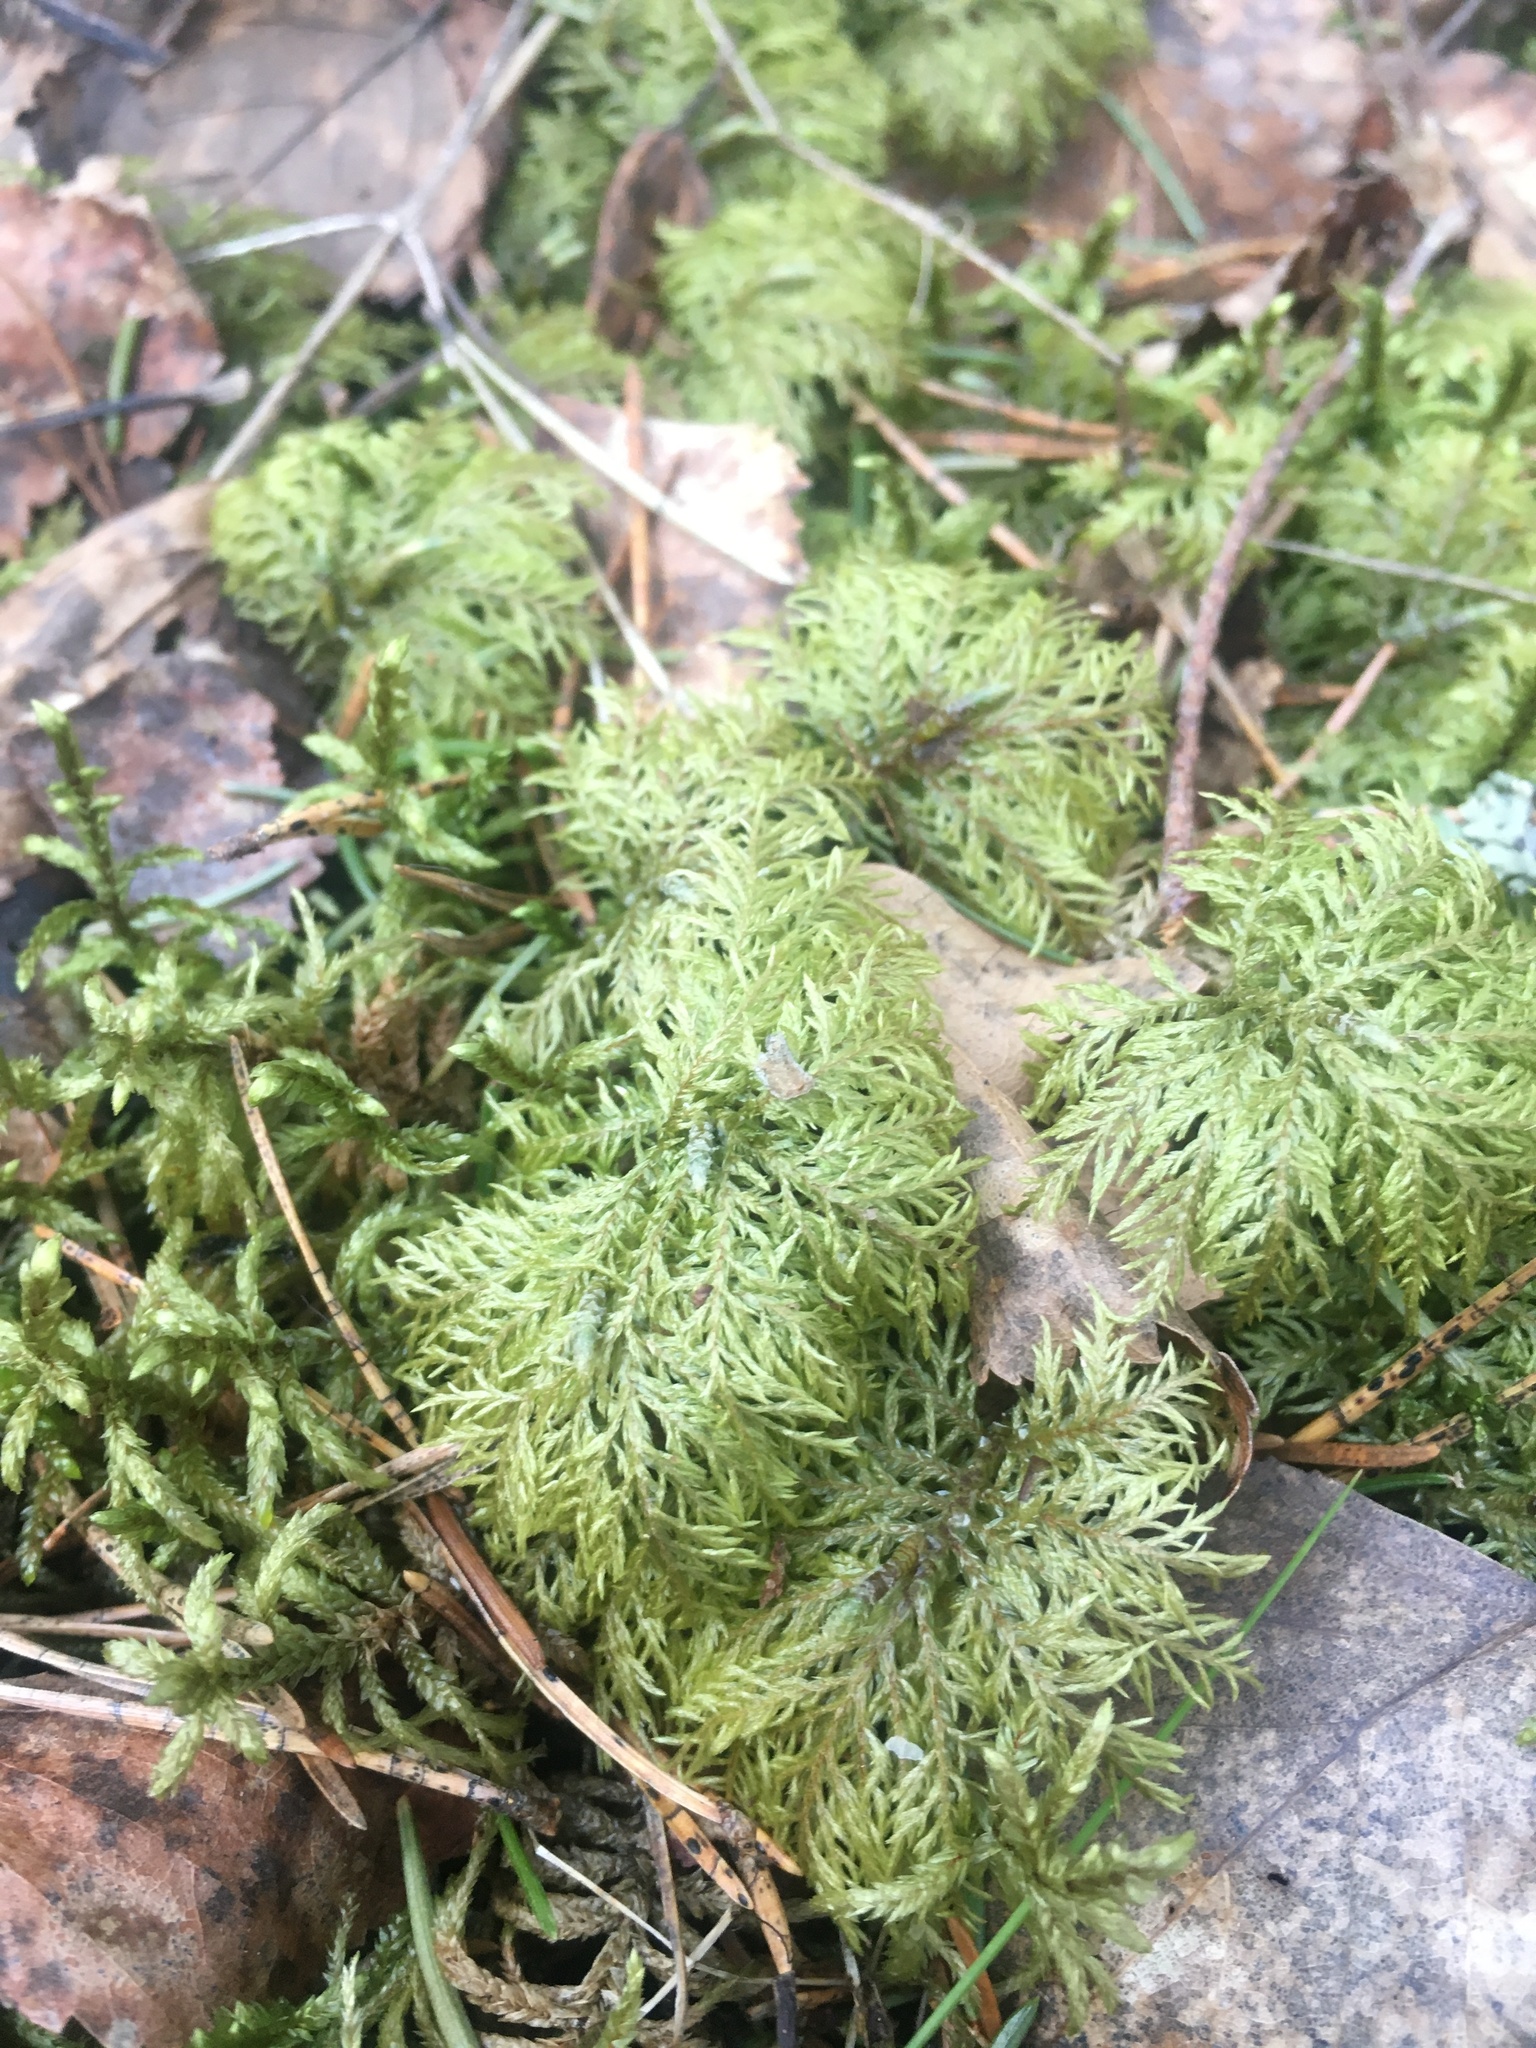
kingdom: Plantae
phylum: Bryophyta
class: Bryopsida
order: Hypnales
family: Hylocomiaceae
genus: Hylocomium
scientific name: Hylocomium splendens
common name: Stairstep moss
